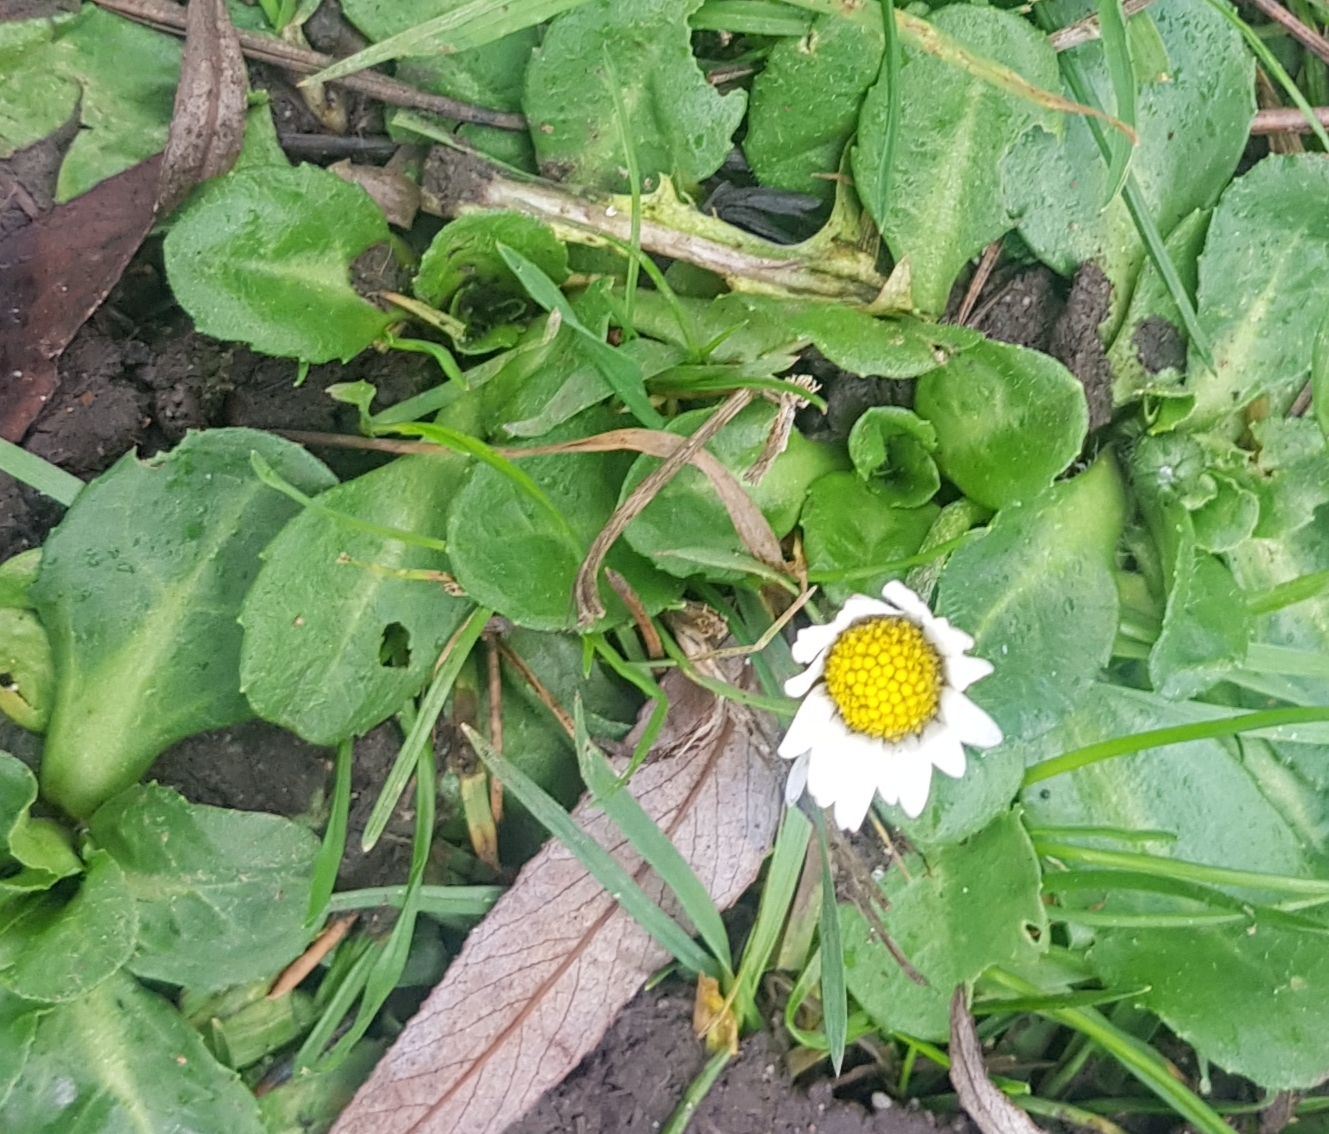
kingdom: Plantae
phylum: Tracheophyta
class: Magnoliopsida
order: Asterales
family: Asteraceae
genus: Bellis
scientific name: Bellis perennis
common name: Lawndaisy
